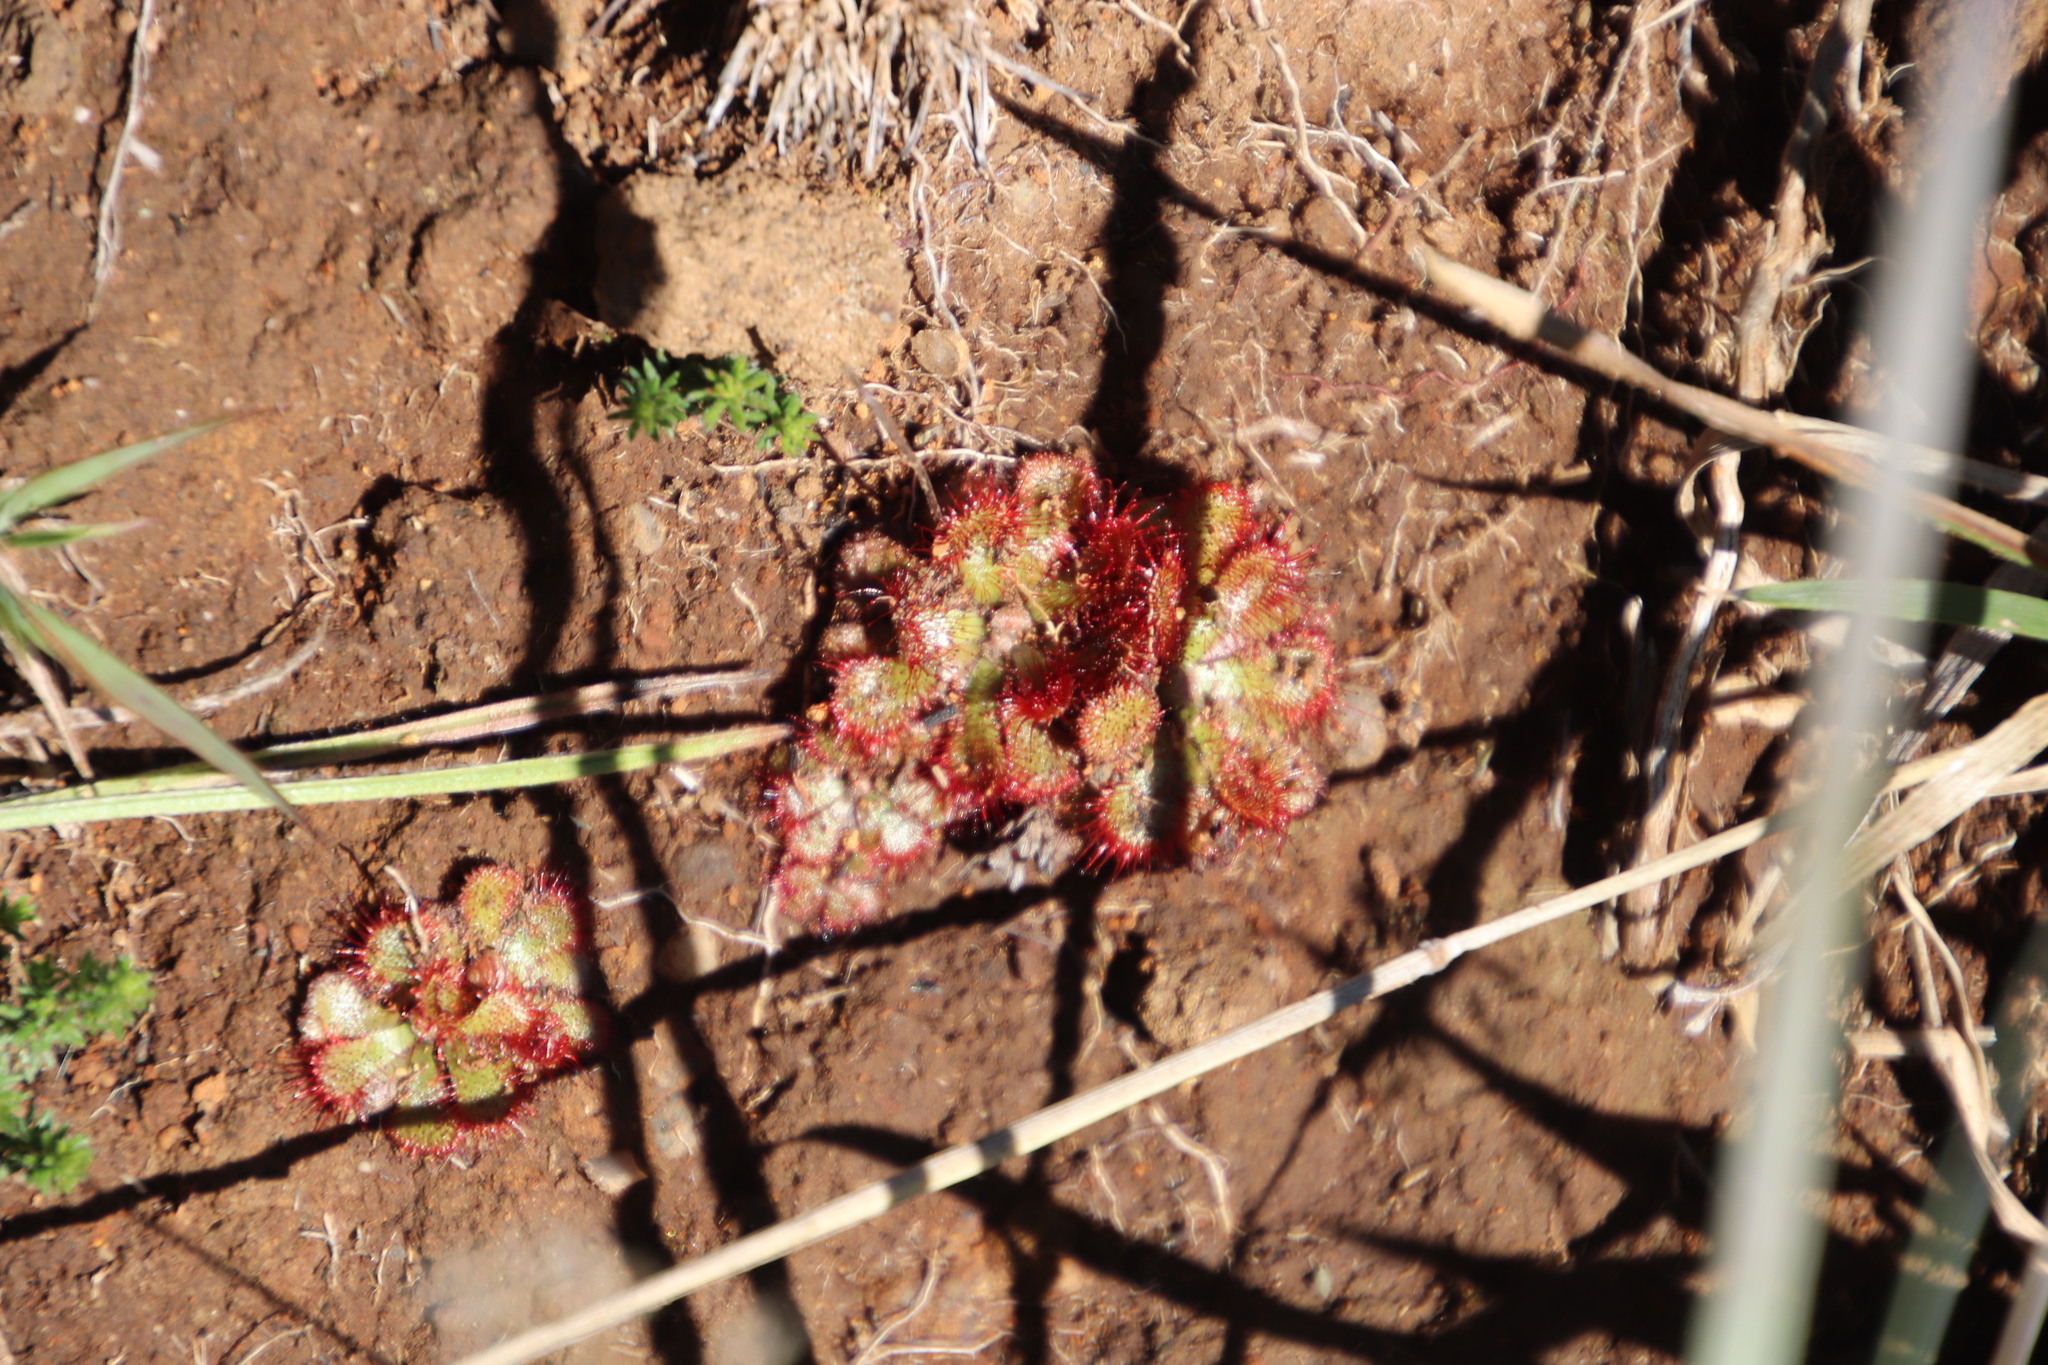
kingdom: Plantae
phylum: Tracheophyta
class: Magnoliopsida
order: Caryophyllales
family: Droseraceae
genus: Drosera
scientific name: Drosera natalensis
